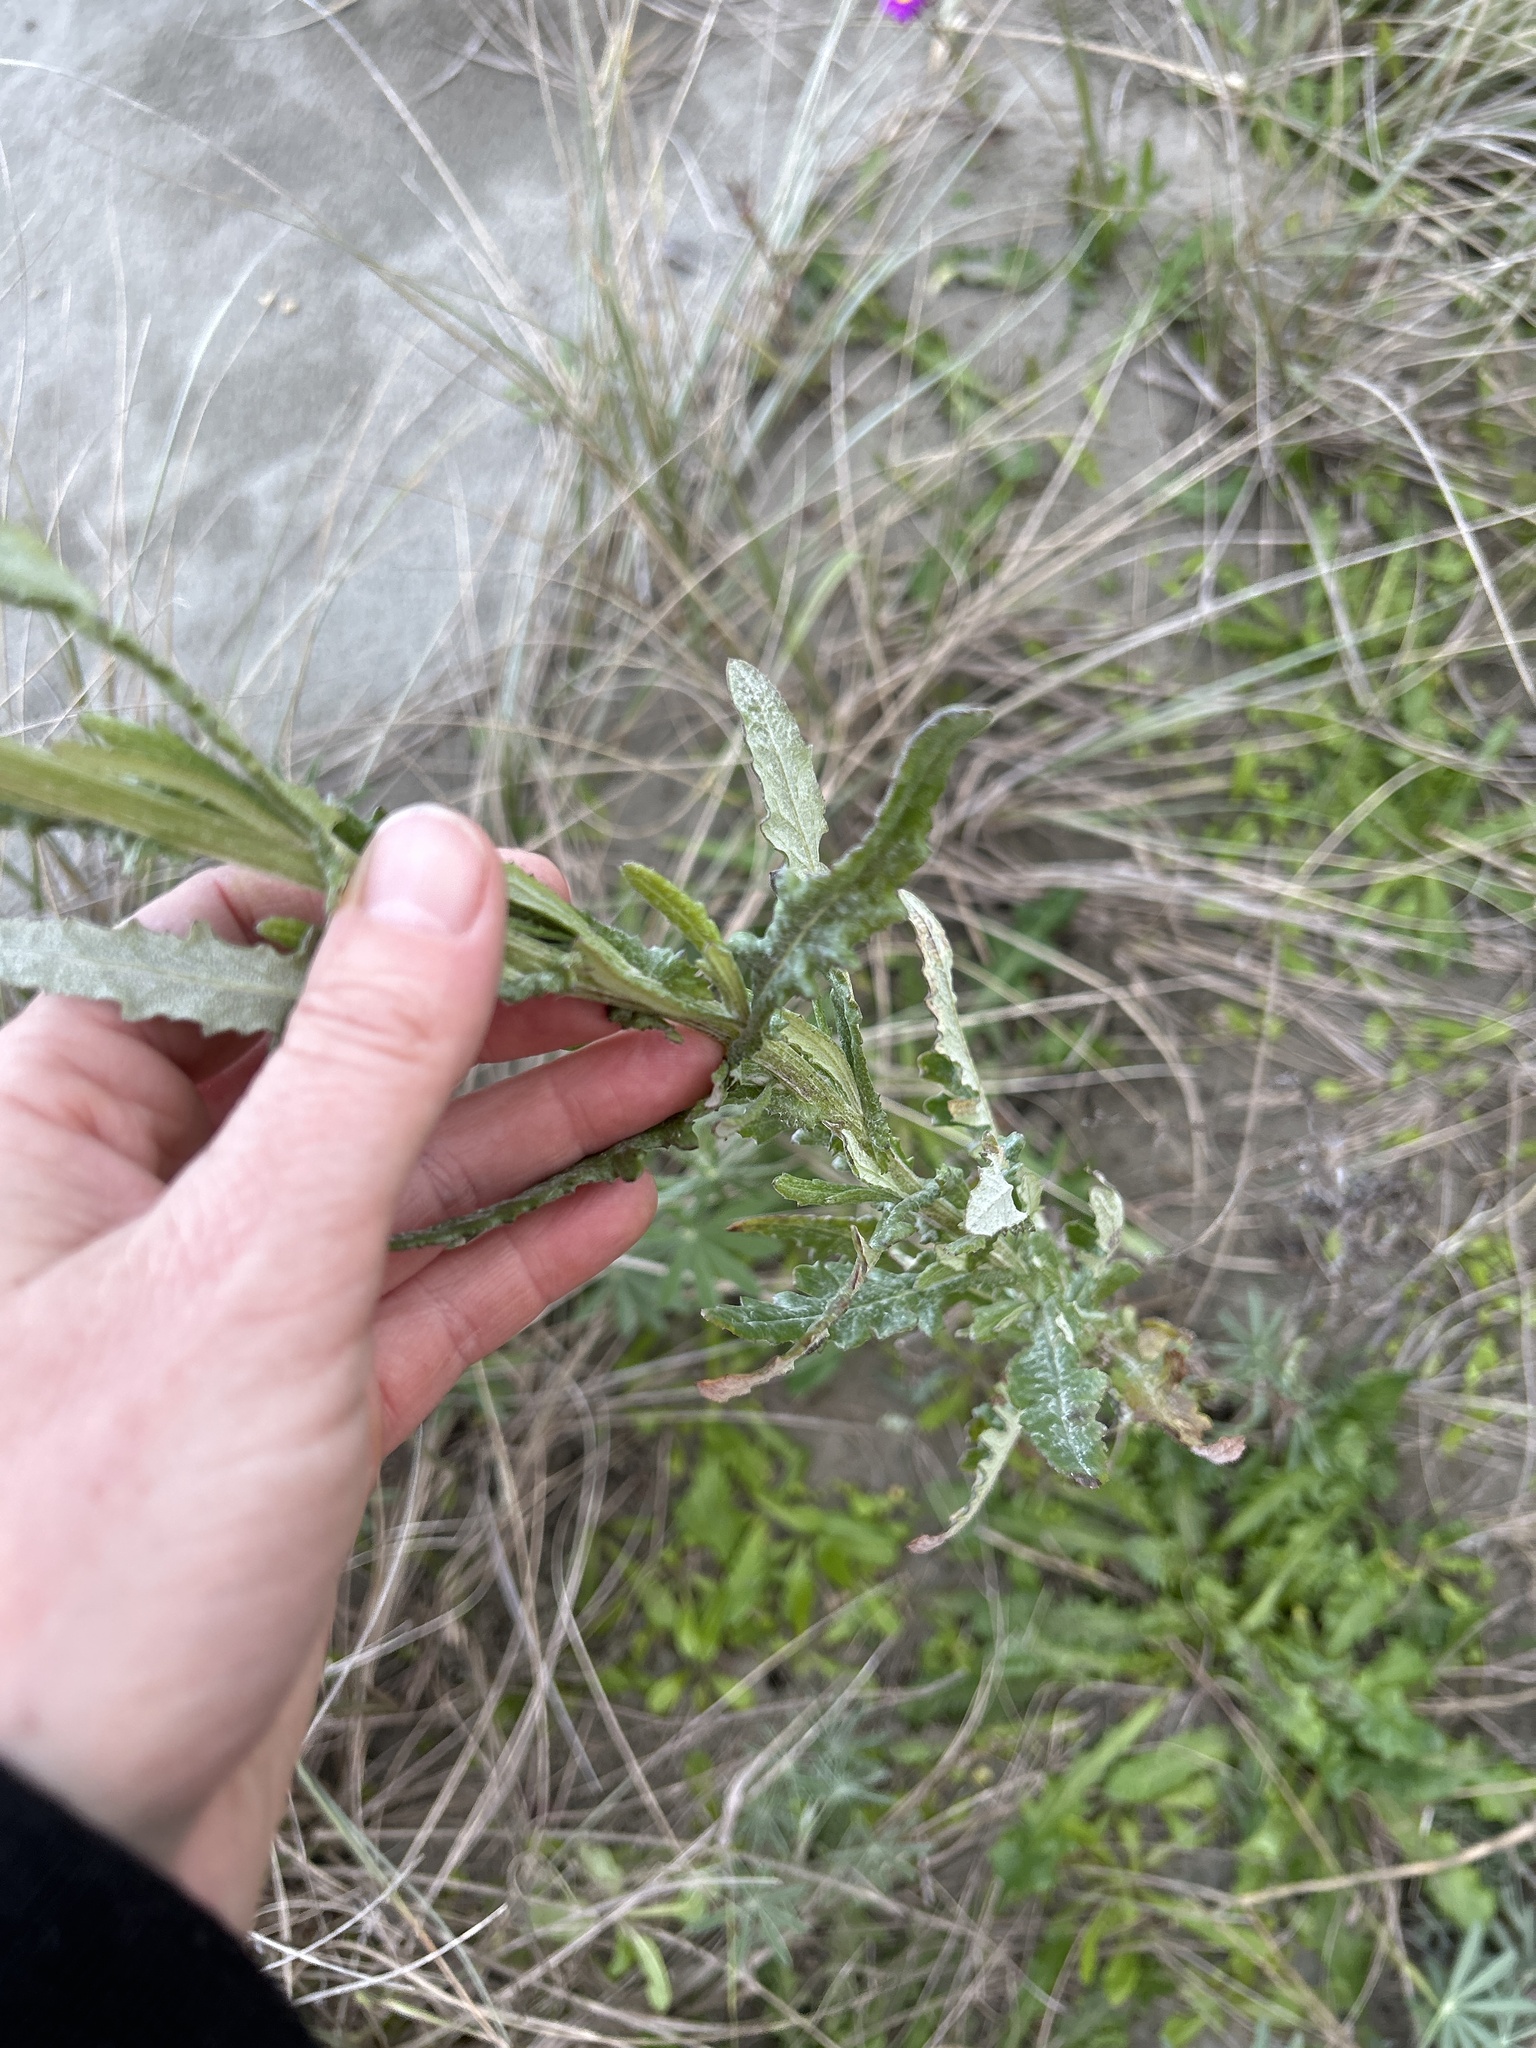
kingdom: Plantae
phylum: Tracheophyta
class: Magnoliopsida
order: Asterales
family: Asteraceae
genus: Senecio
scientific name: Senecio glomeratus
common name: Cutleaf burnweed
